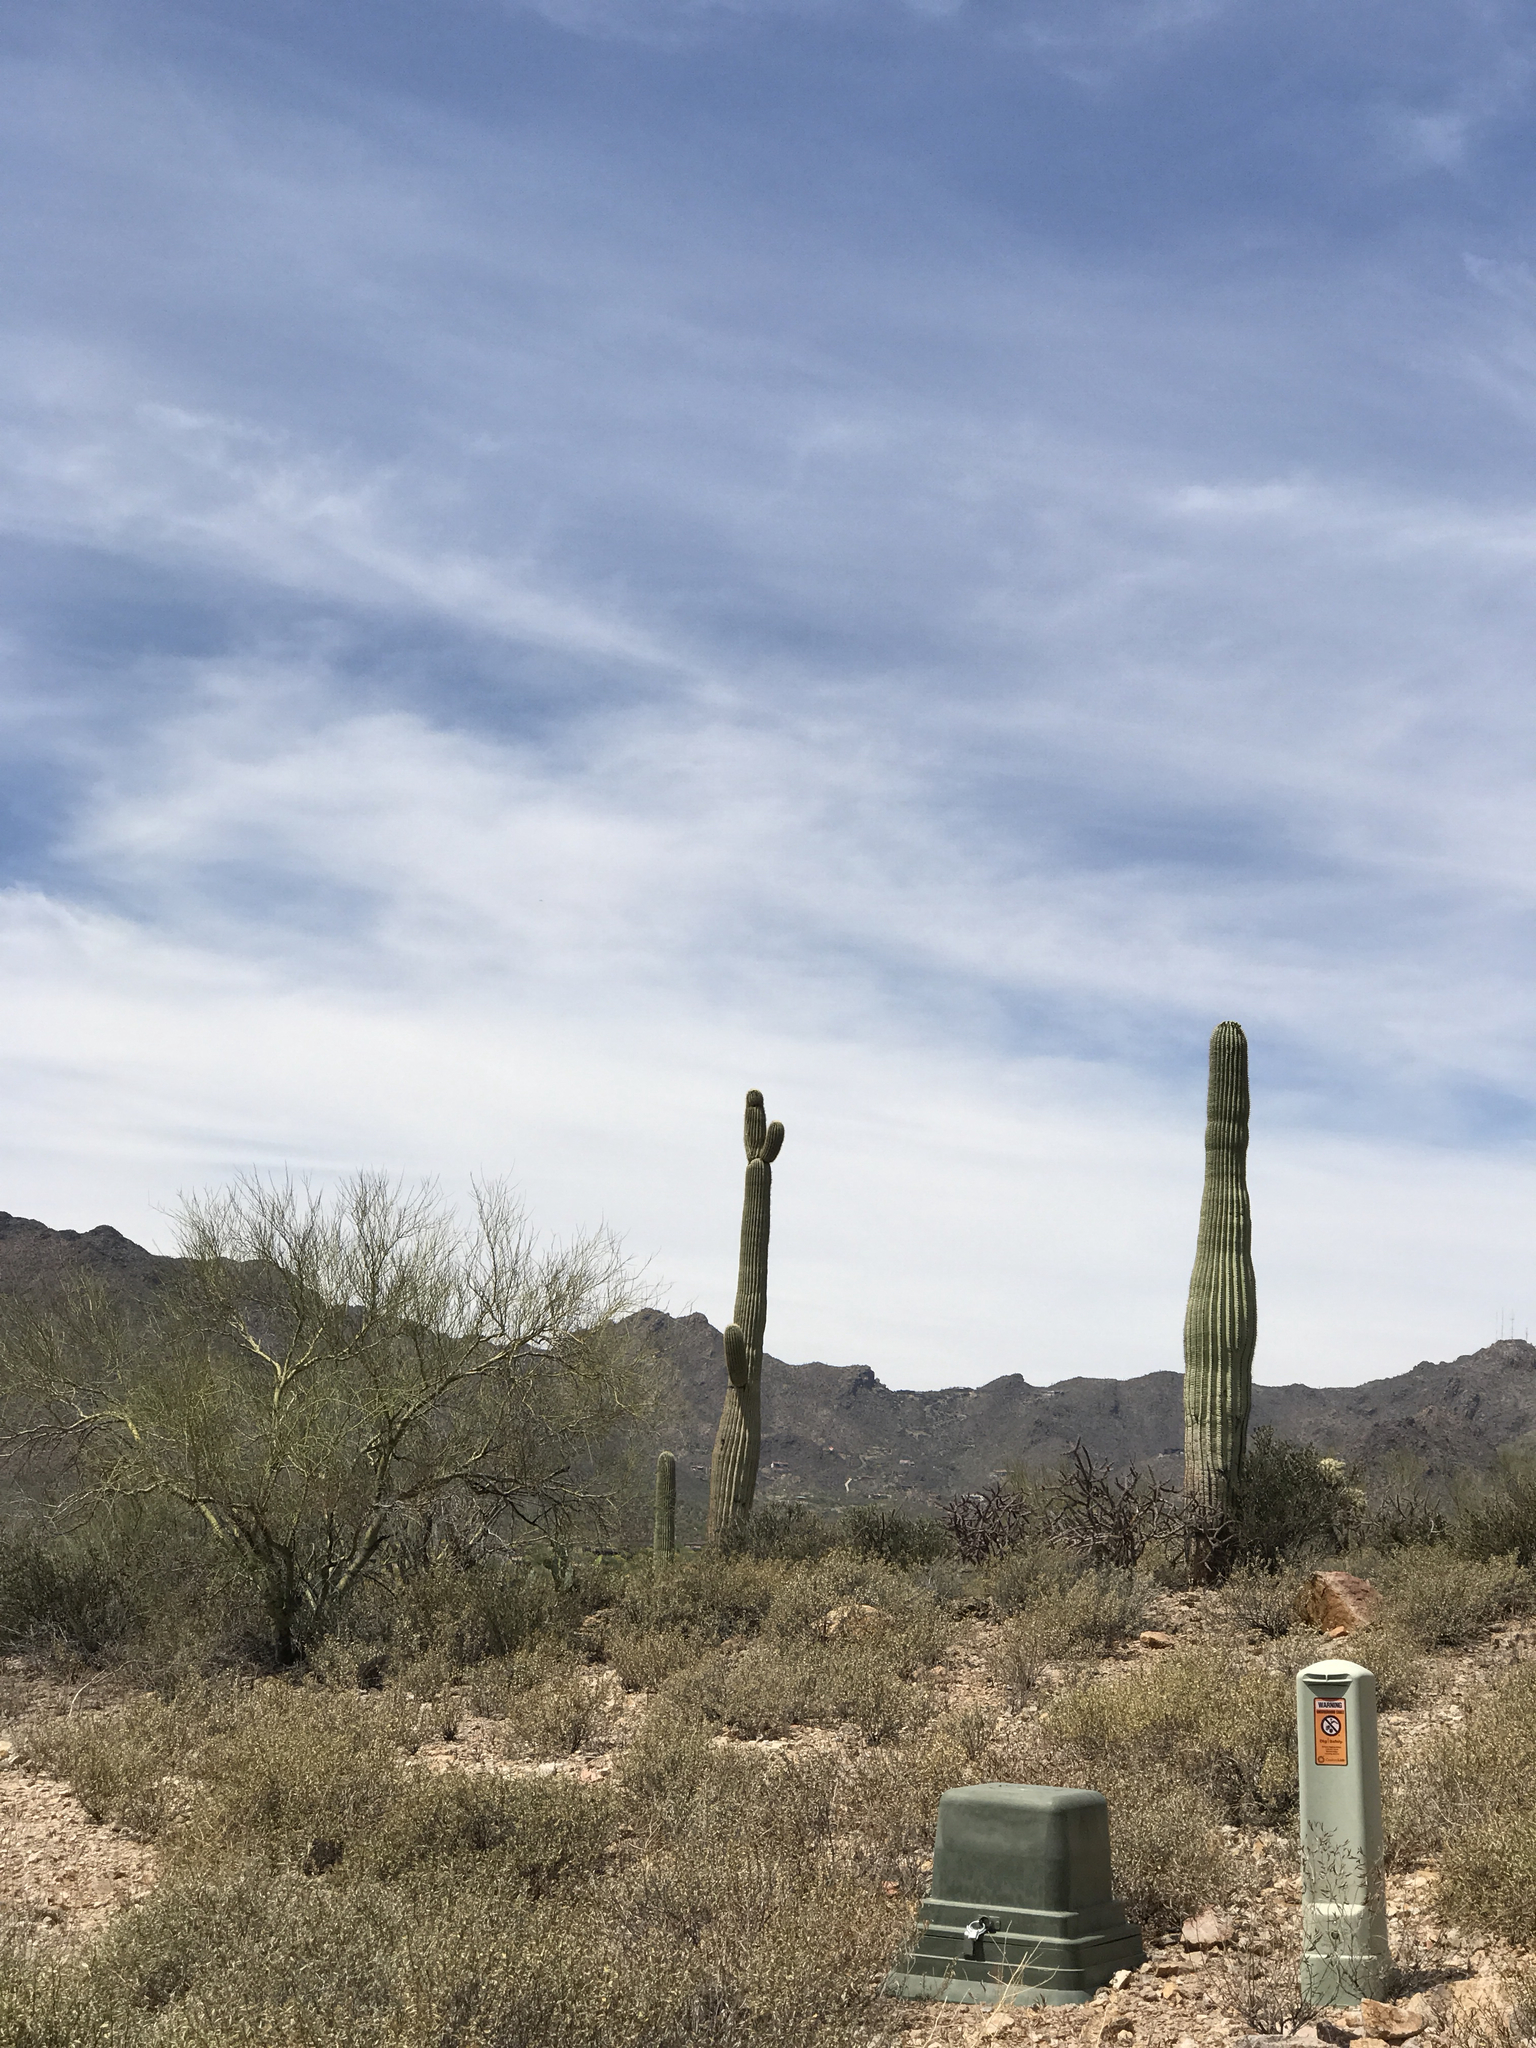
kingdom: Plantae
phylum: Tracheophyta
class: Magnoliopsida
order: Fabales
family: Fabaceae
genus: Parkinsonia
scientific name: Parkinsonia microphylla
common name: Yellow paloverde
